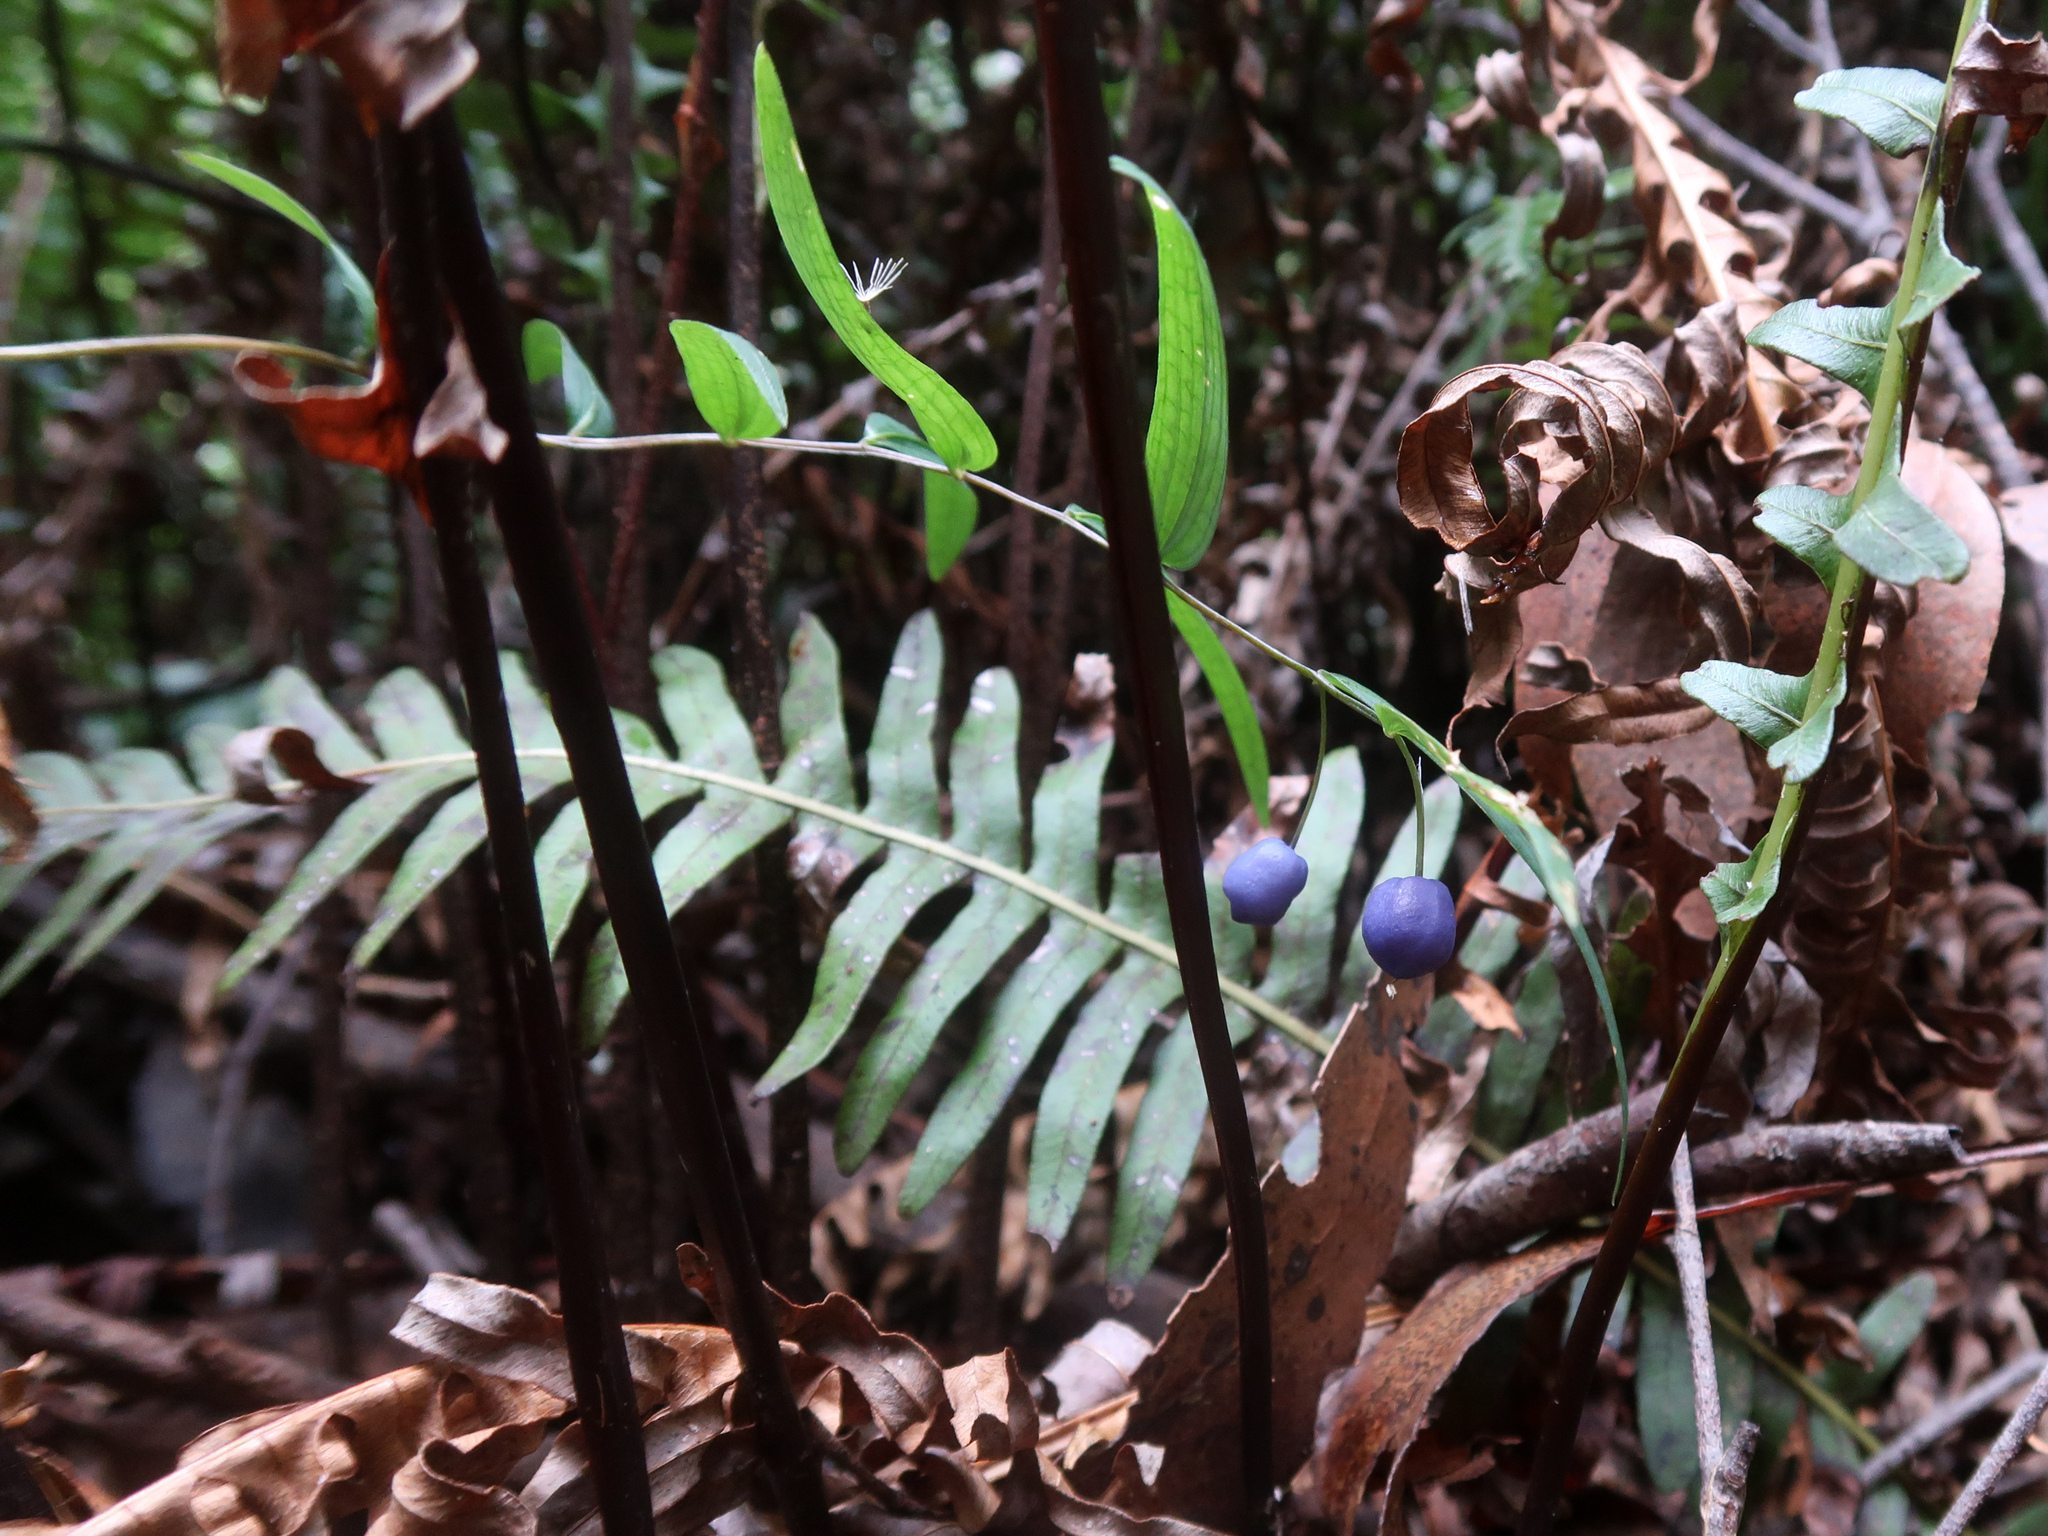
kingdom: Plantae
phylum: Tracheophyta
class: Liliopsida
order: Liliales
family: Alstroemeriaceae
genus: Drymophila
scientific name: Drymophila cyanocarpa
